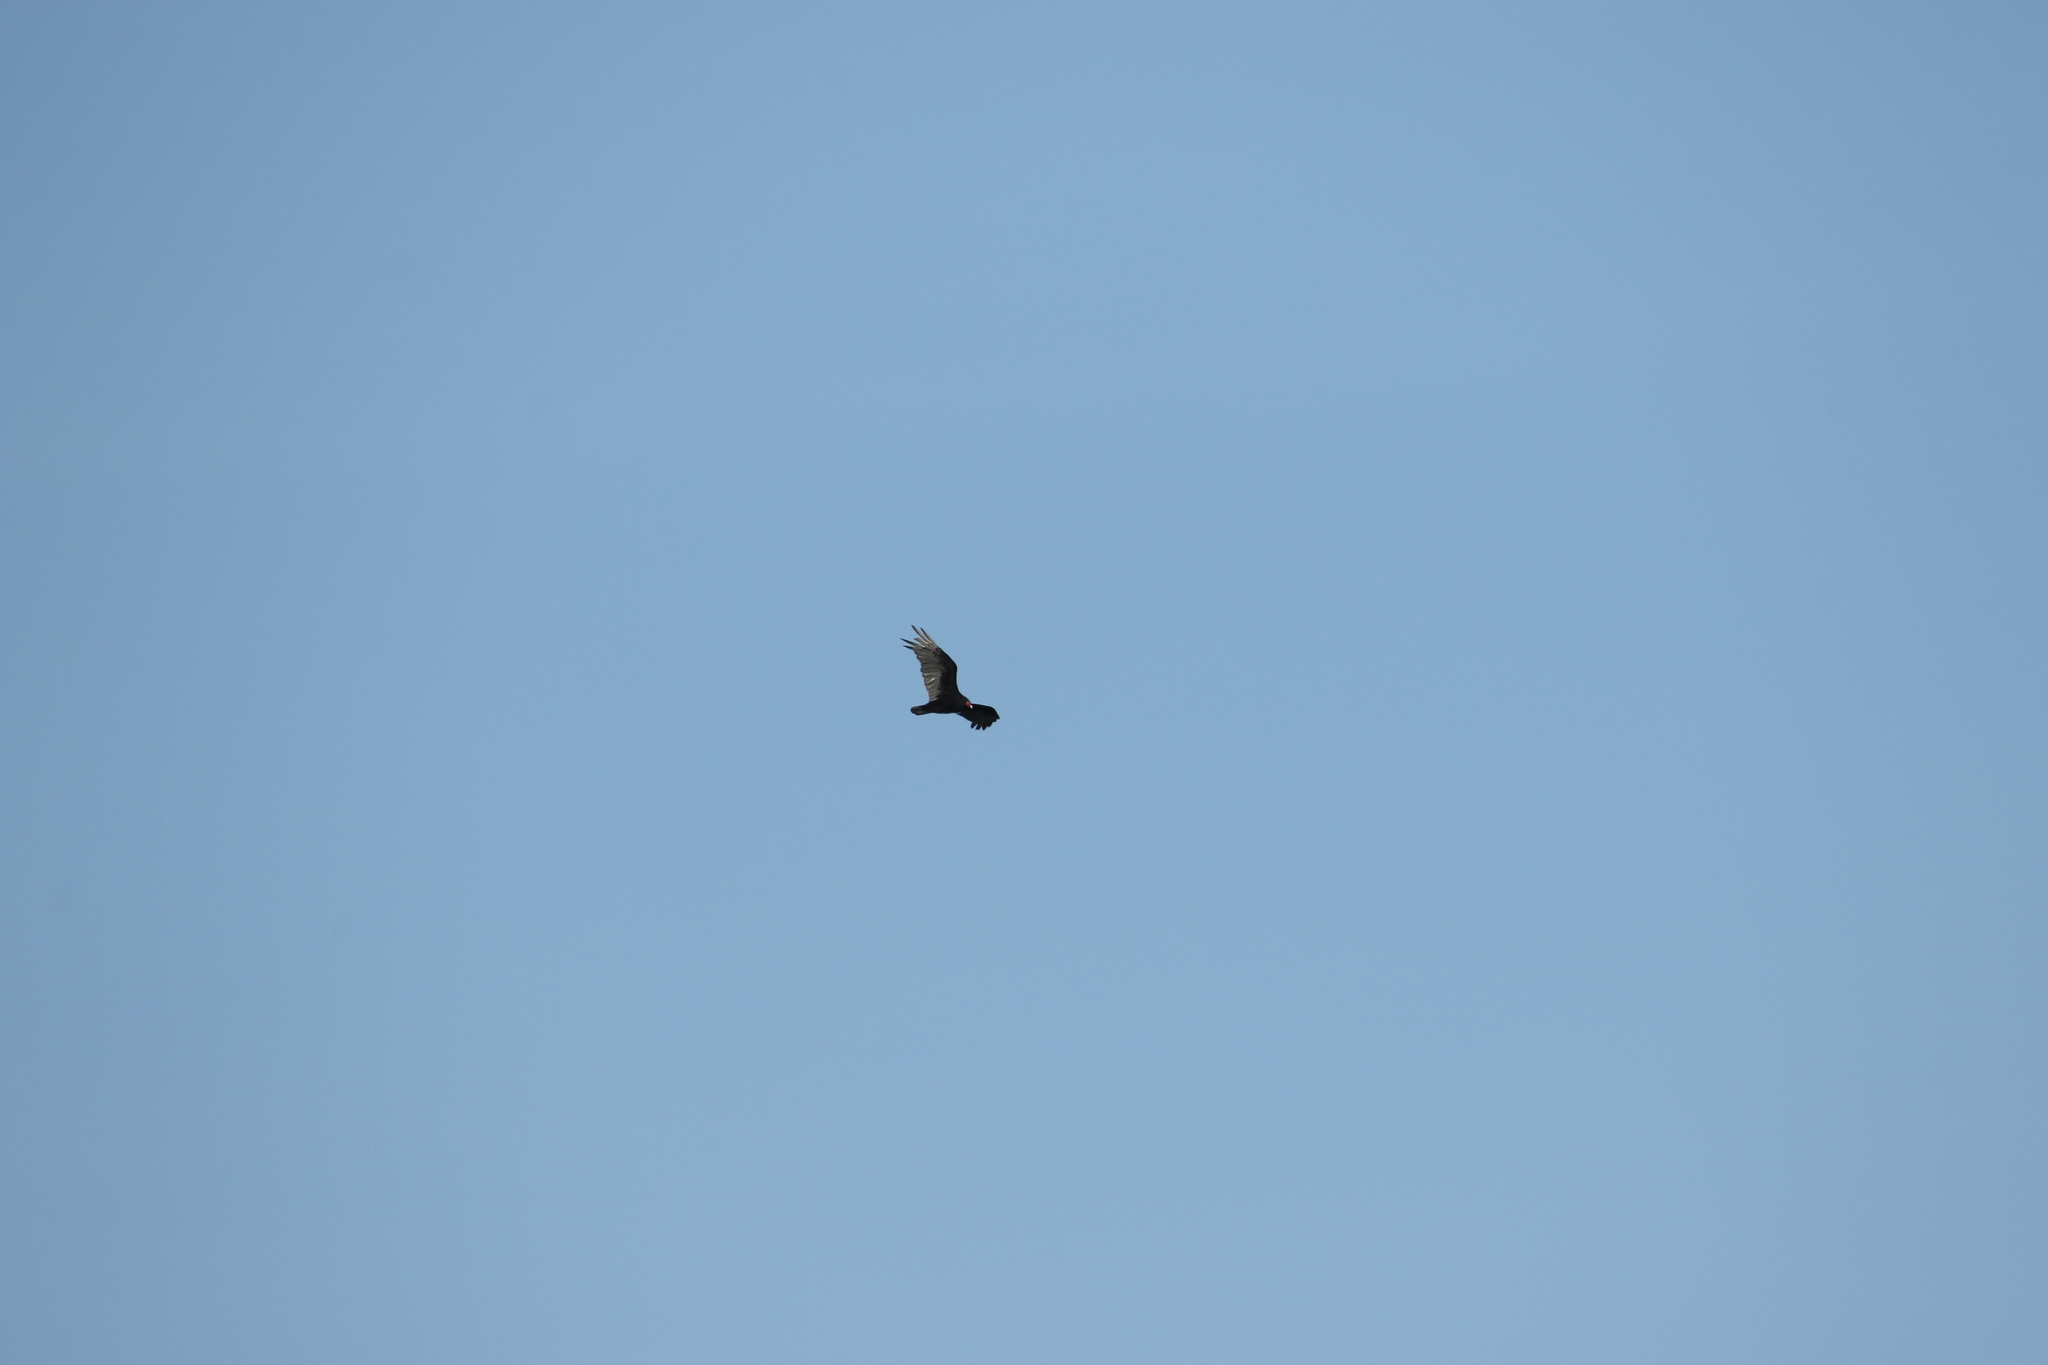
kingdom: Animalia
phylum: Chordata
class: Aves
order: Accipitriformes
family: Cathartidae
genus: Cathartes
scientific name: Cathartes aura
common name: Turkey vulture
